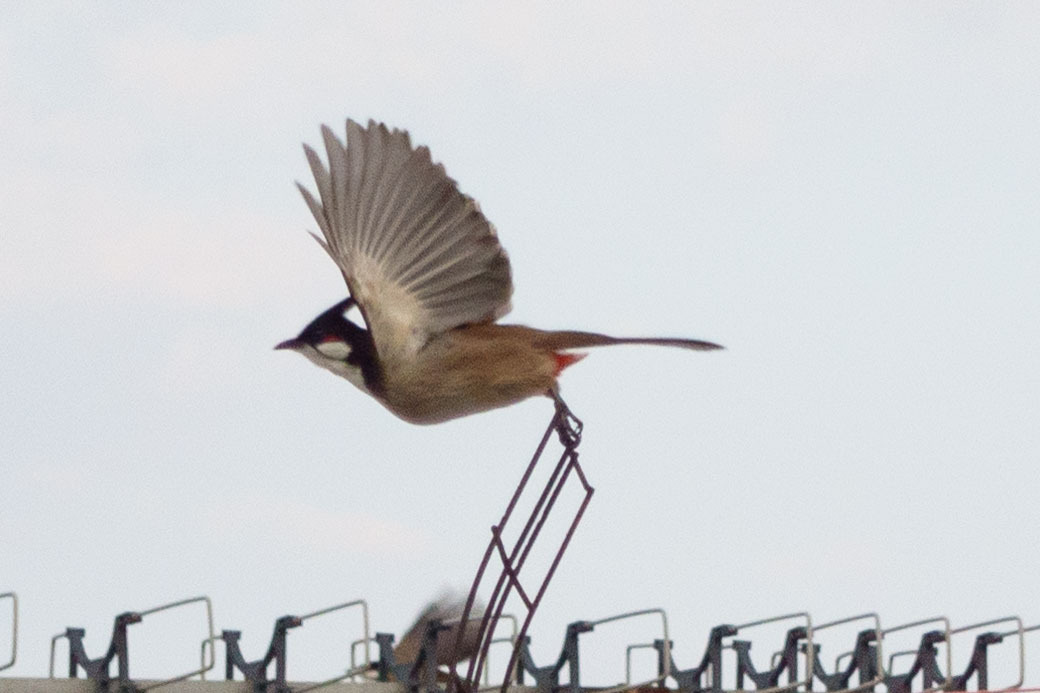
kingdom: Animalia
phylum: Chordata
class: Aves
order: Passeriformes
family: Pycnonotidae
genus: Pycnonotus
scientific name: Pycnonotus jocosus
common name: Red-whiskered bulbul
